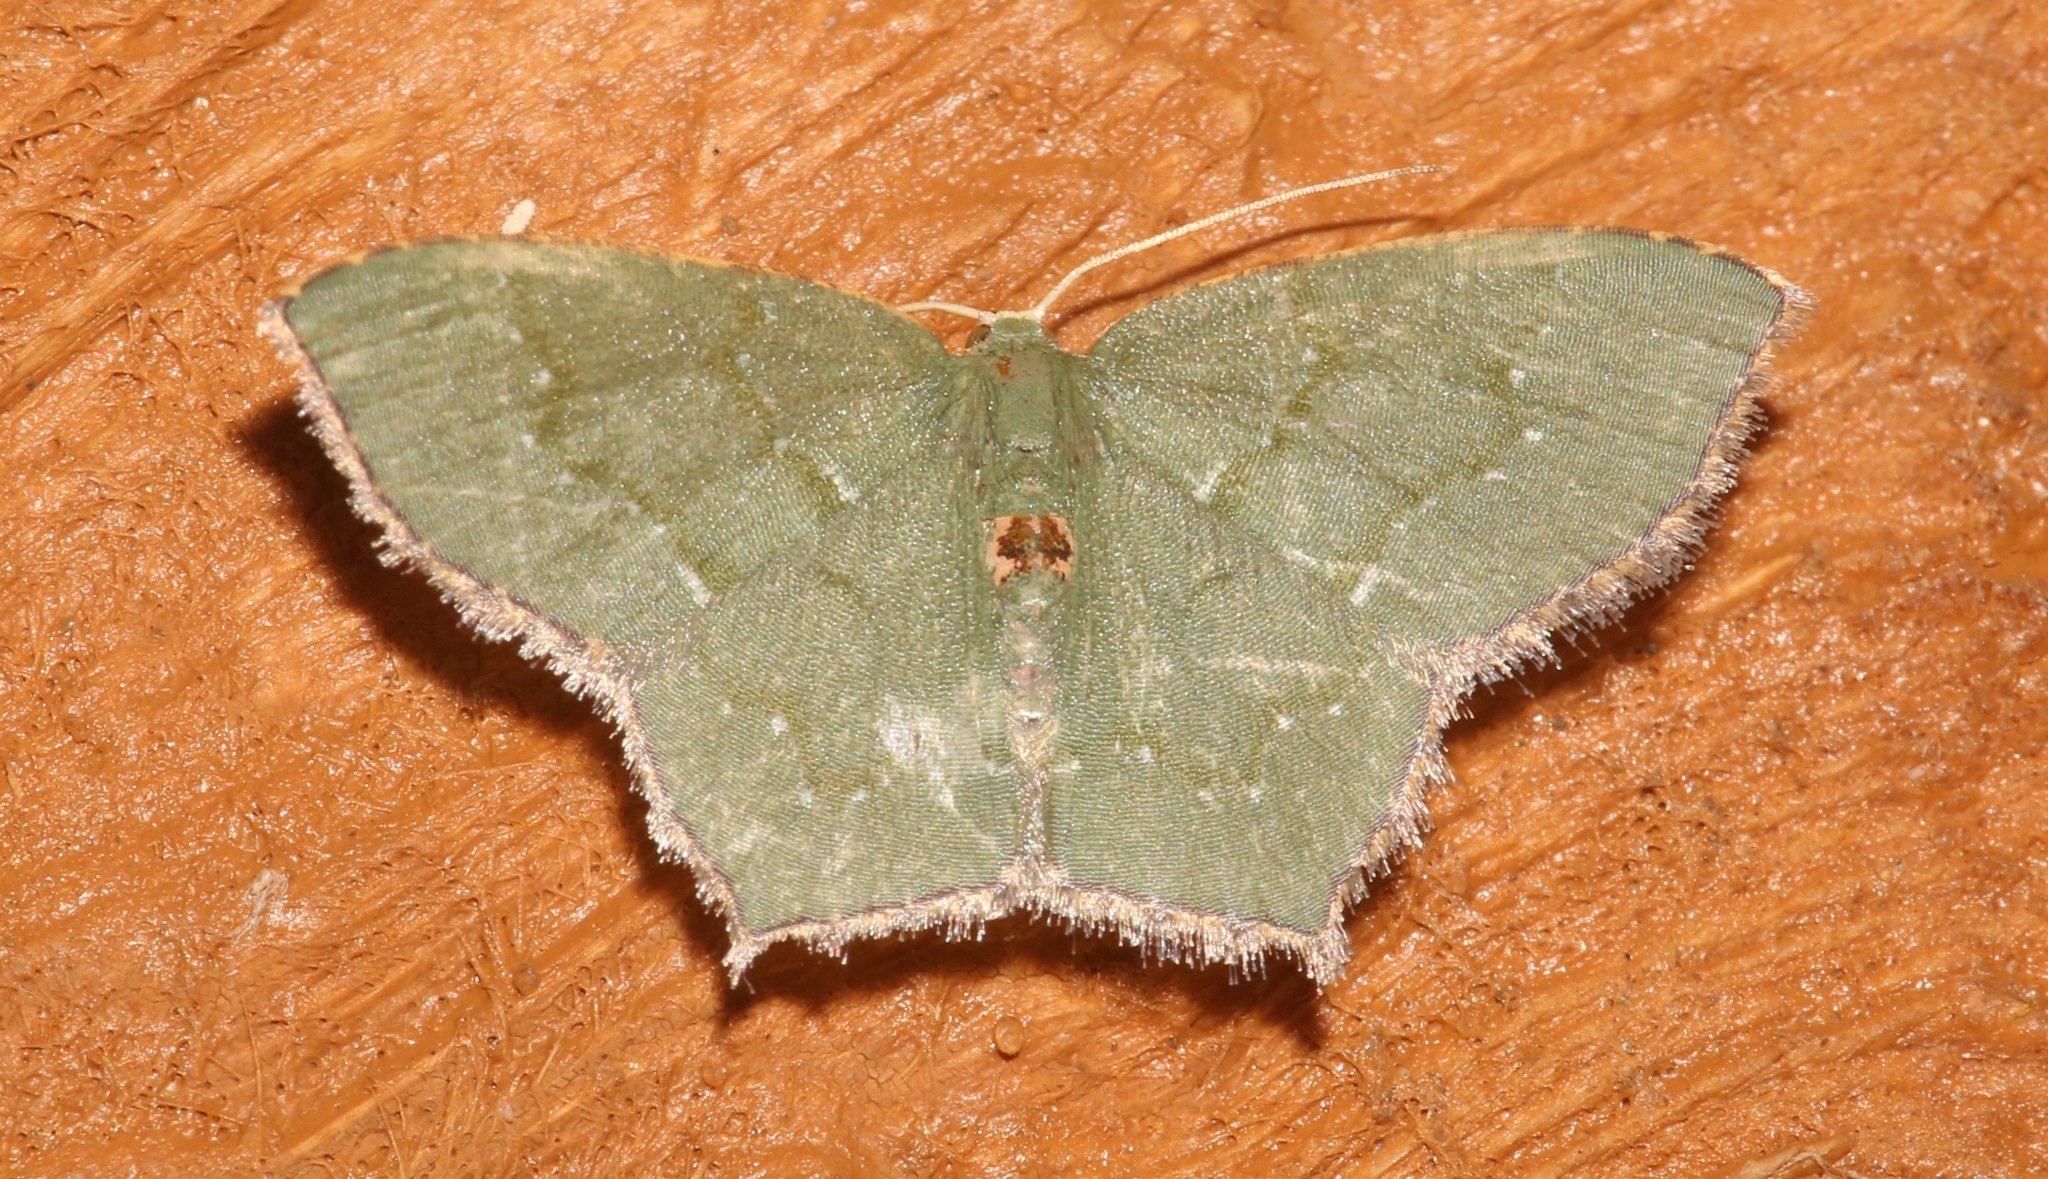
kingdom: Animalia
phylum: Arthropoda
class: Insecta
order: Lepidoptera
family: Geometridae
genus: Chloropteryx
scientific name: Chloropteryx tepperaria
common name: Angle winged emerald moth
